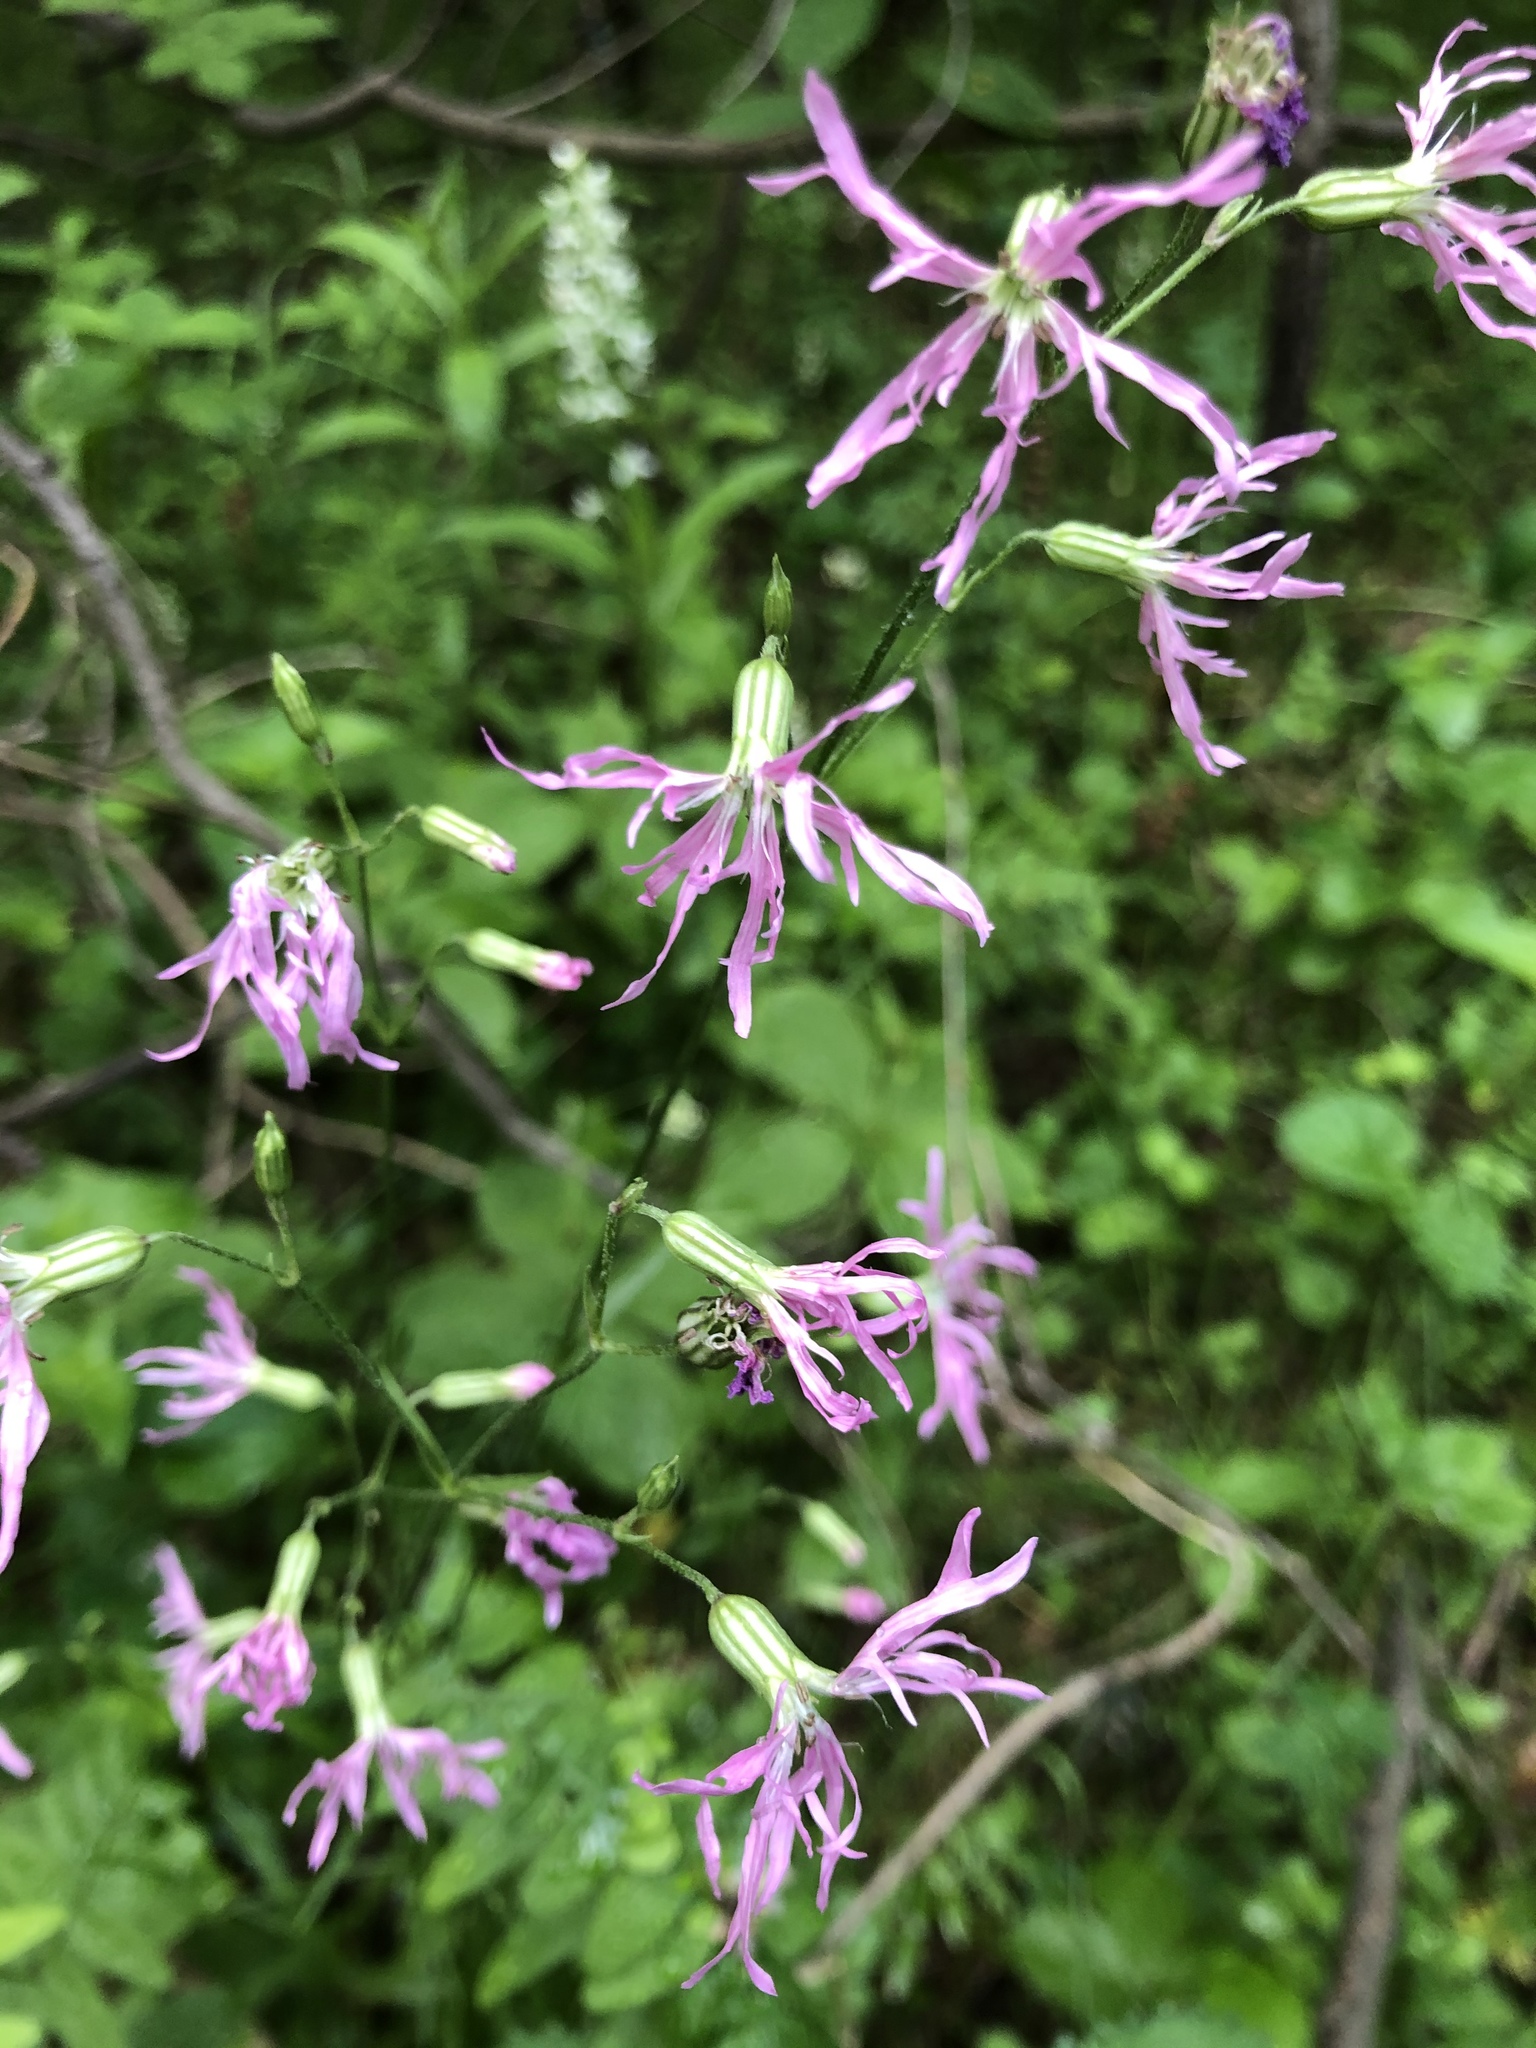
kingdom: Plantae
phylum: Tracheophyta
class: Magnoliopsida
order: Caryophyllales
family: Caryophyllaceae
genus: Silene
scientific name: Silene flos-cuculi
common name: Ragged-robin
